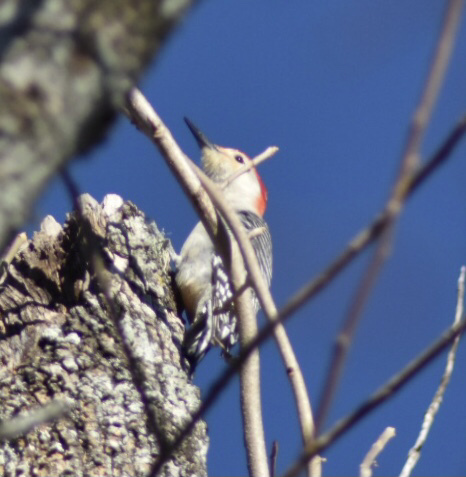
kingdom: Animalia
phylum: Chordata
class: Aves
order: Piciformes
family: Picidae
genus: Melanerpes
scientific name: Melanerpes carolinus
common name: Red-bellied woodpecker
